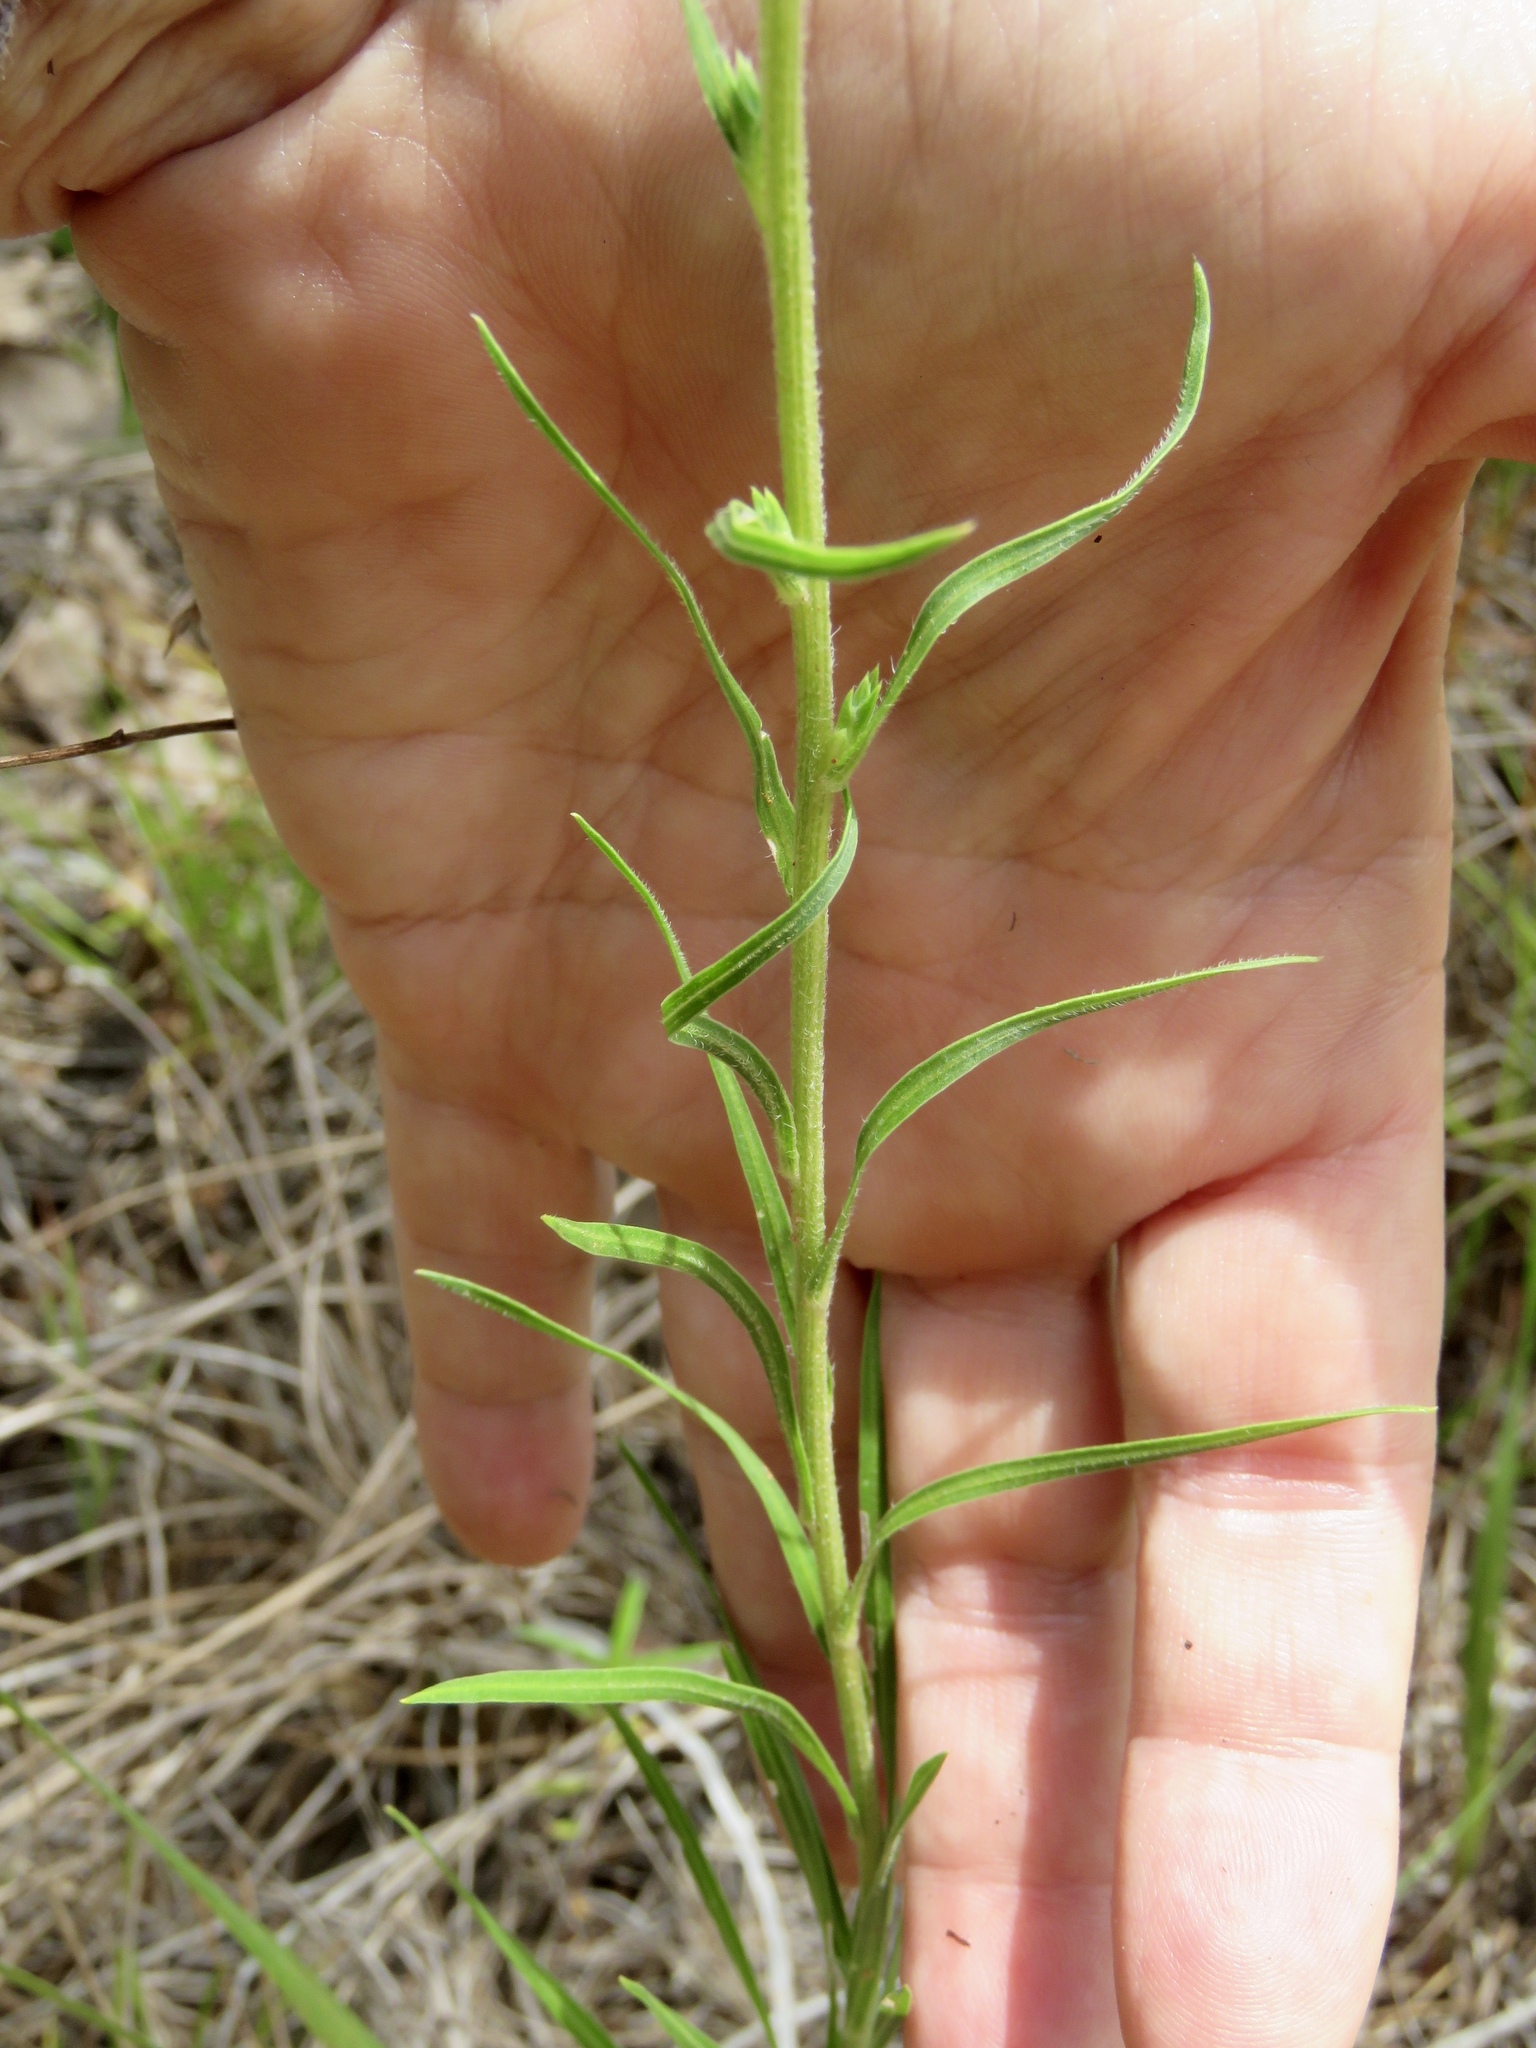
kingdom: Plantae
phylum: Tracheophyta
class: Magnoliopsida
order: Asterales
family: Asteraceae
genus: Liatris
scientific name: Liatris squarrosa
